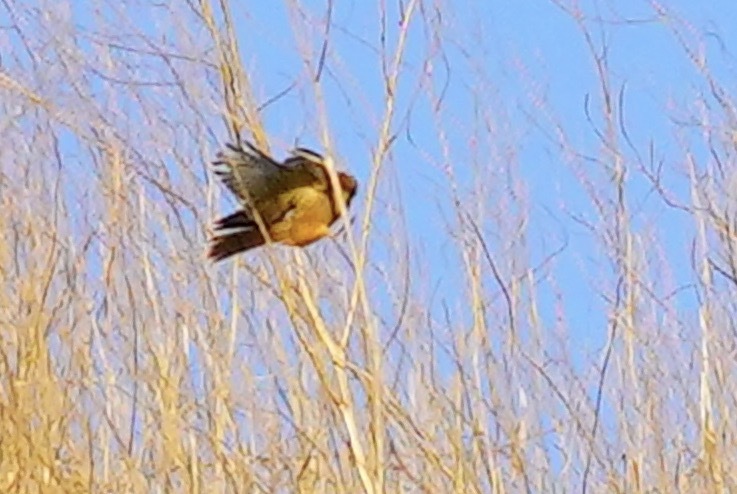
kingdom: Animalia
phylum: Chordata
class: Aves
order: Passeriformes
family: Tyrannidae
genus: Sayornis
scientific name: Sayornis saya
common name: Say's phoebe
